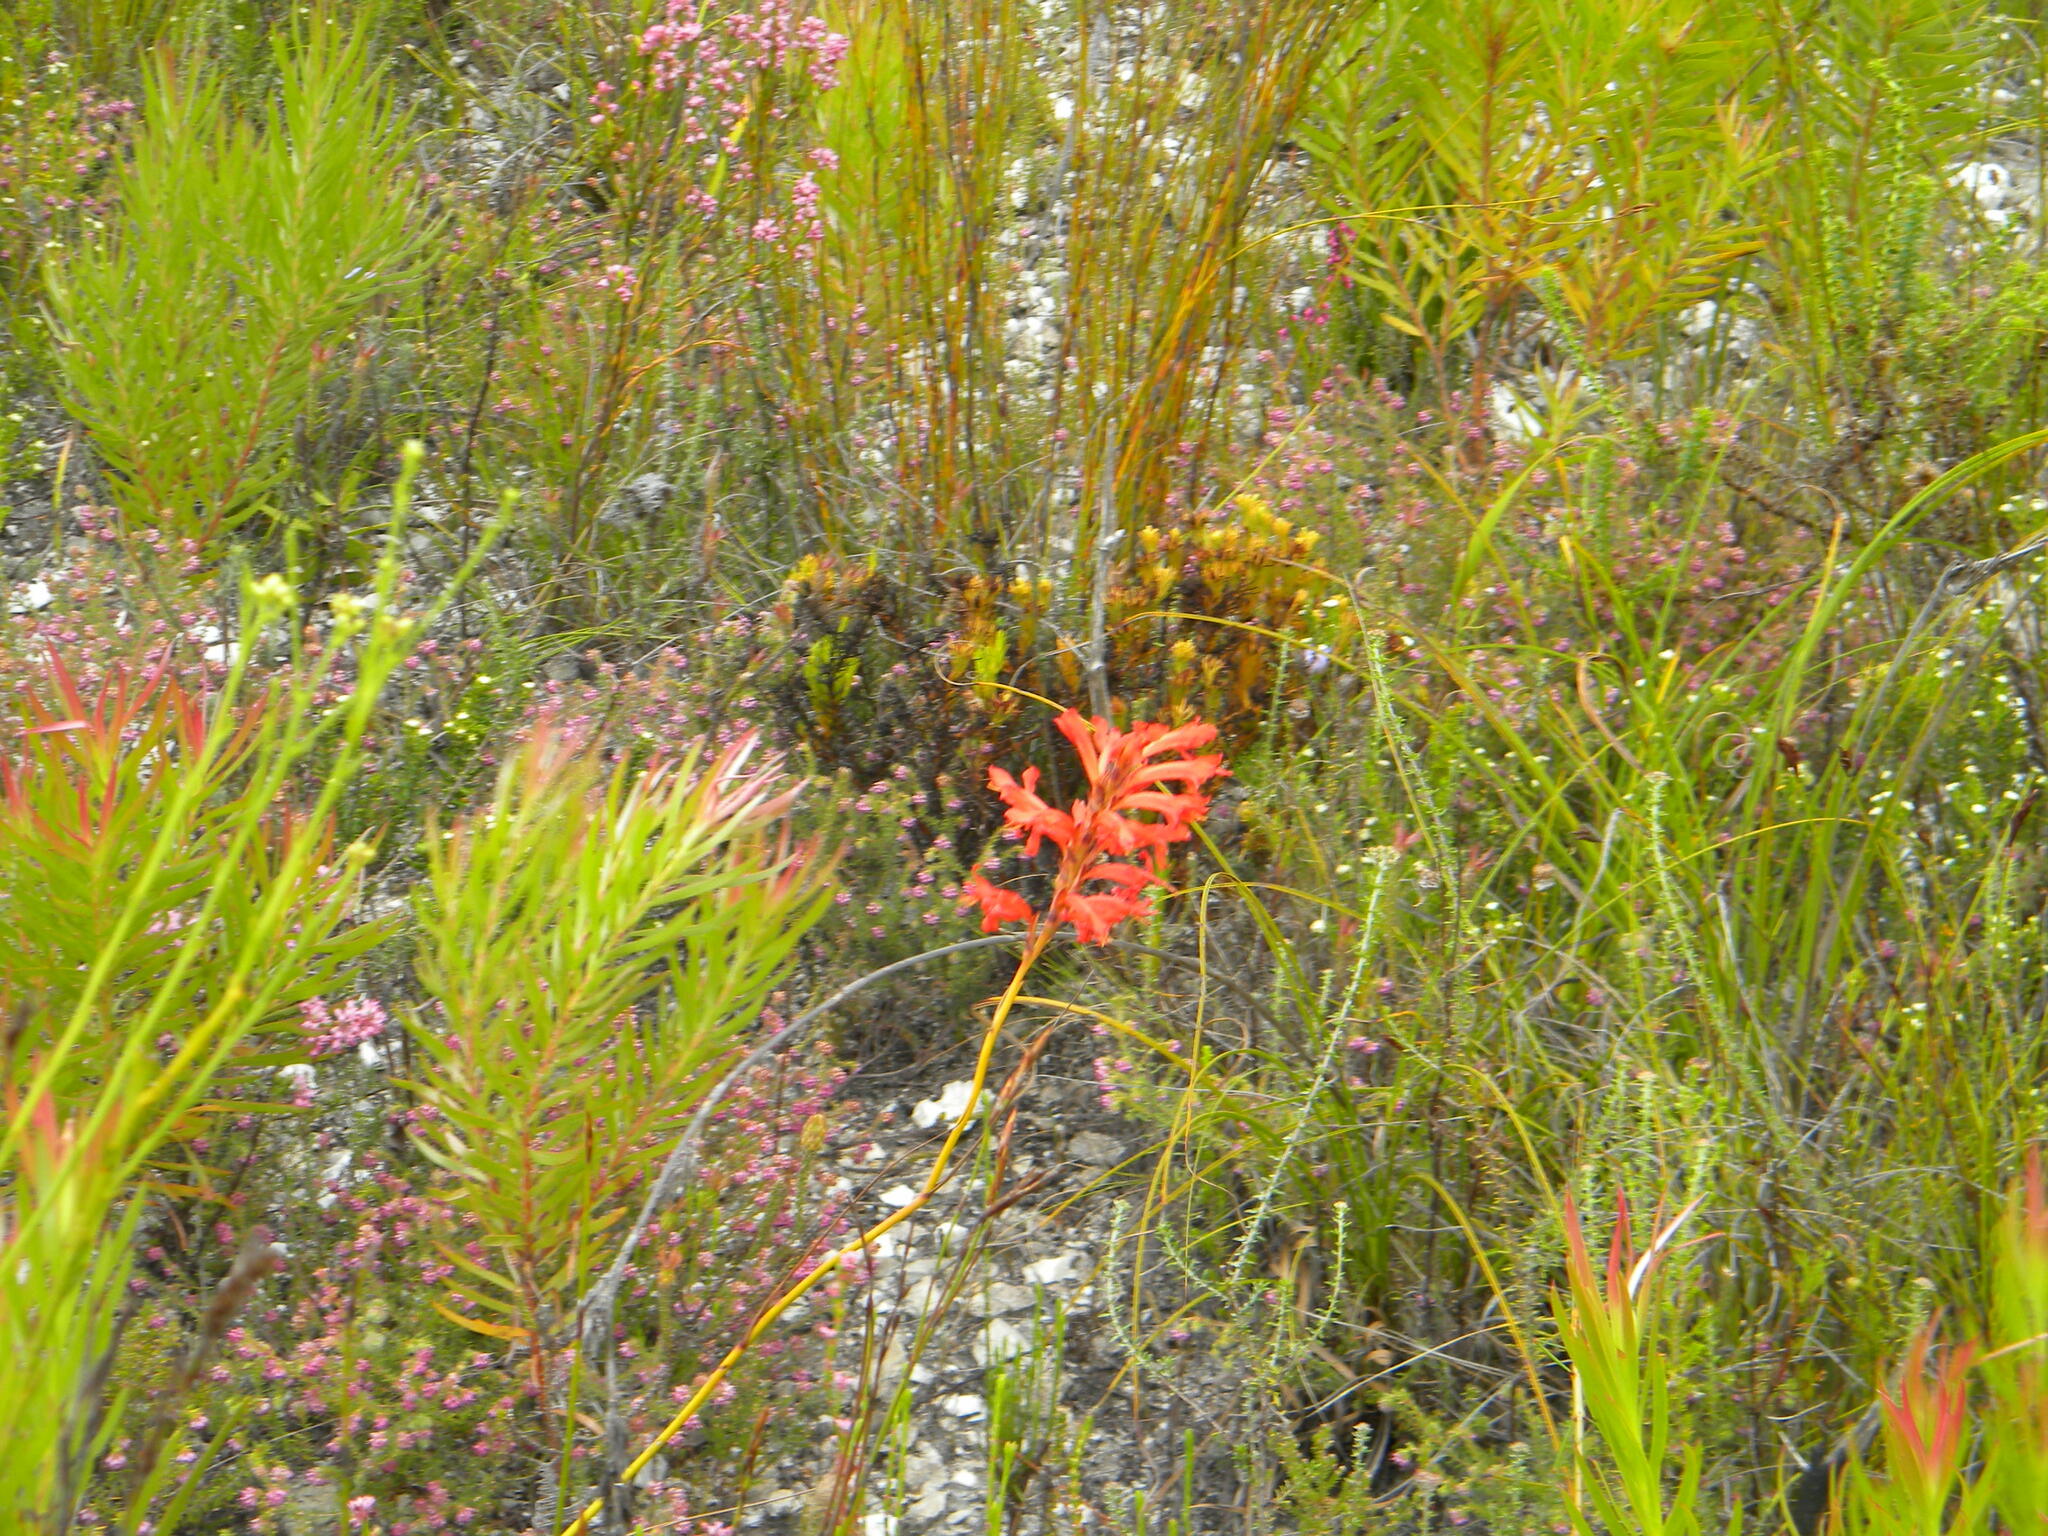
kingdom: Plantae
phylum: Tracheophyta
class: Liliopsida
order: Asparagales
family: Iridaceae
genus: Tritoniopsis
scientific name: Tritoniopsis triticea
